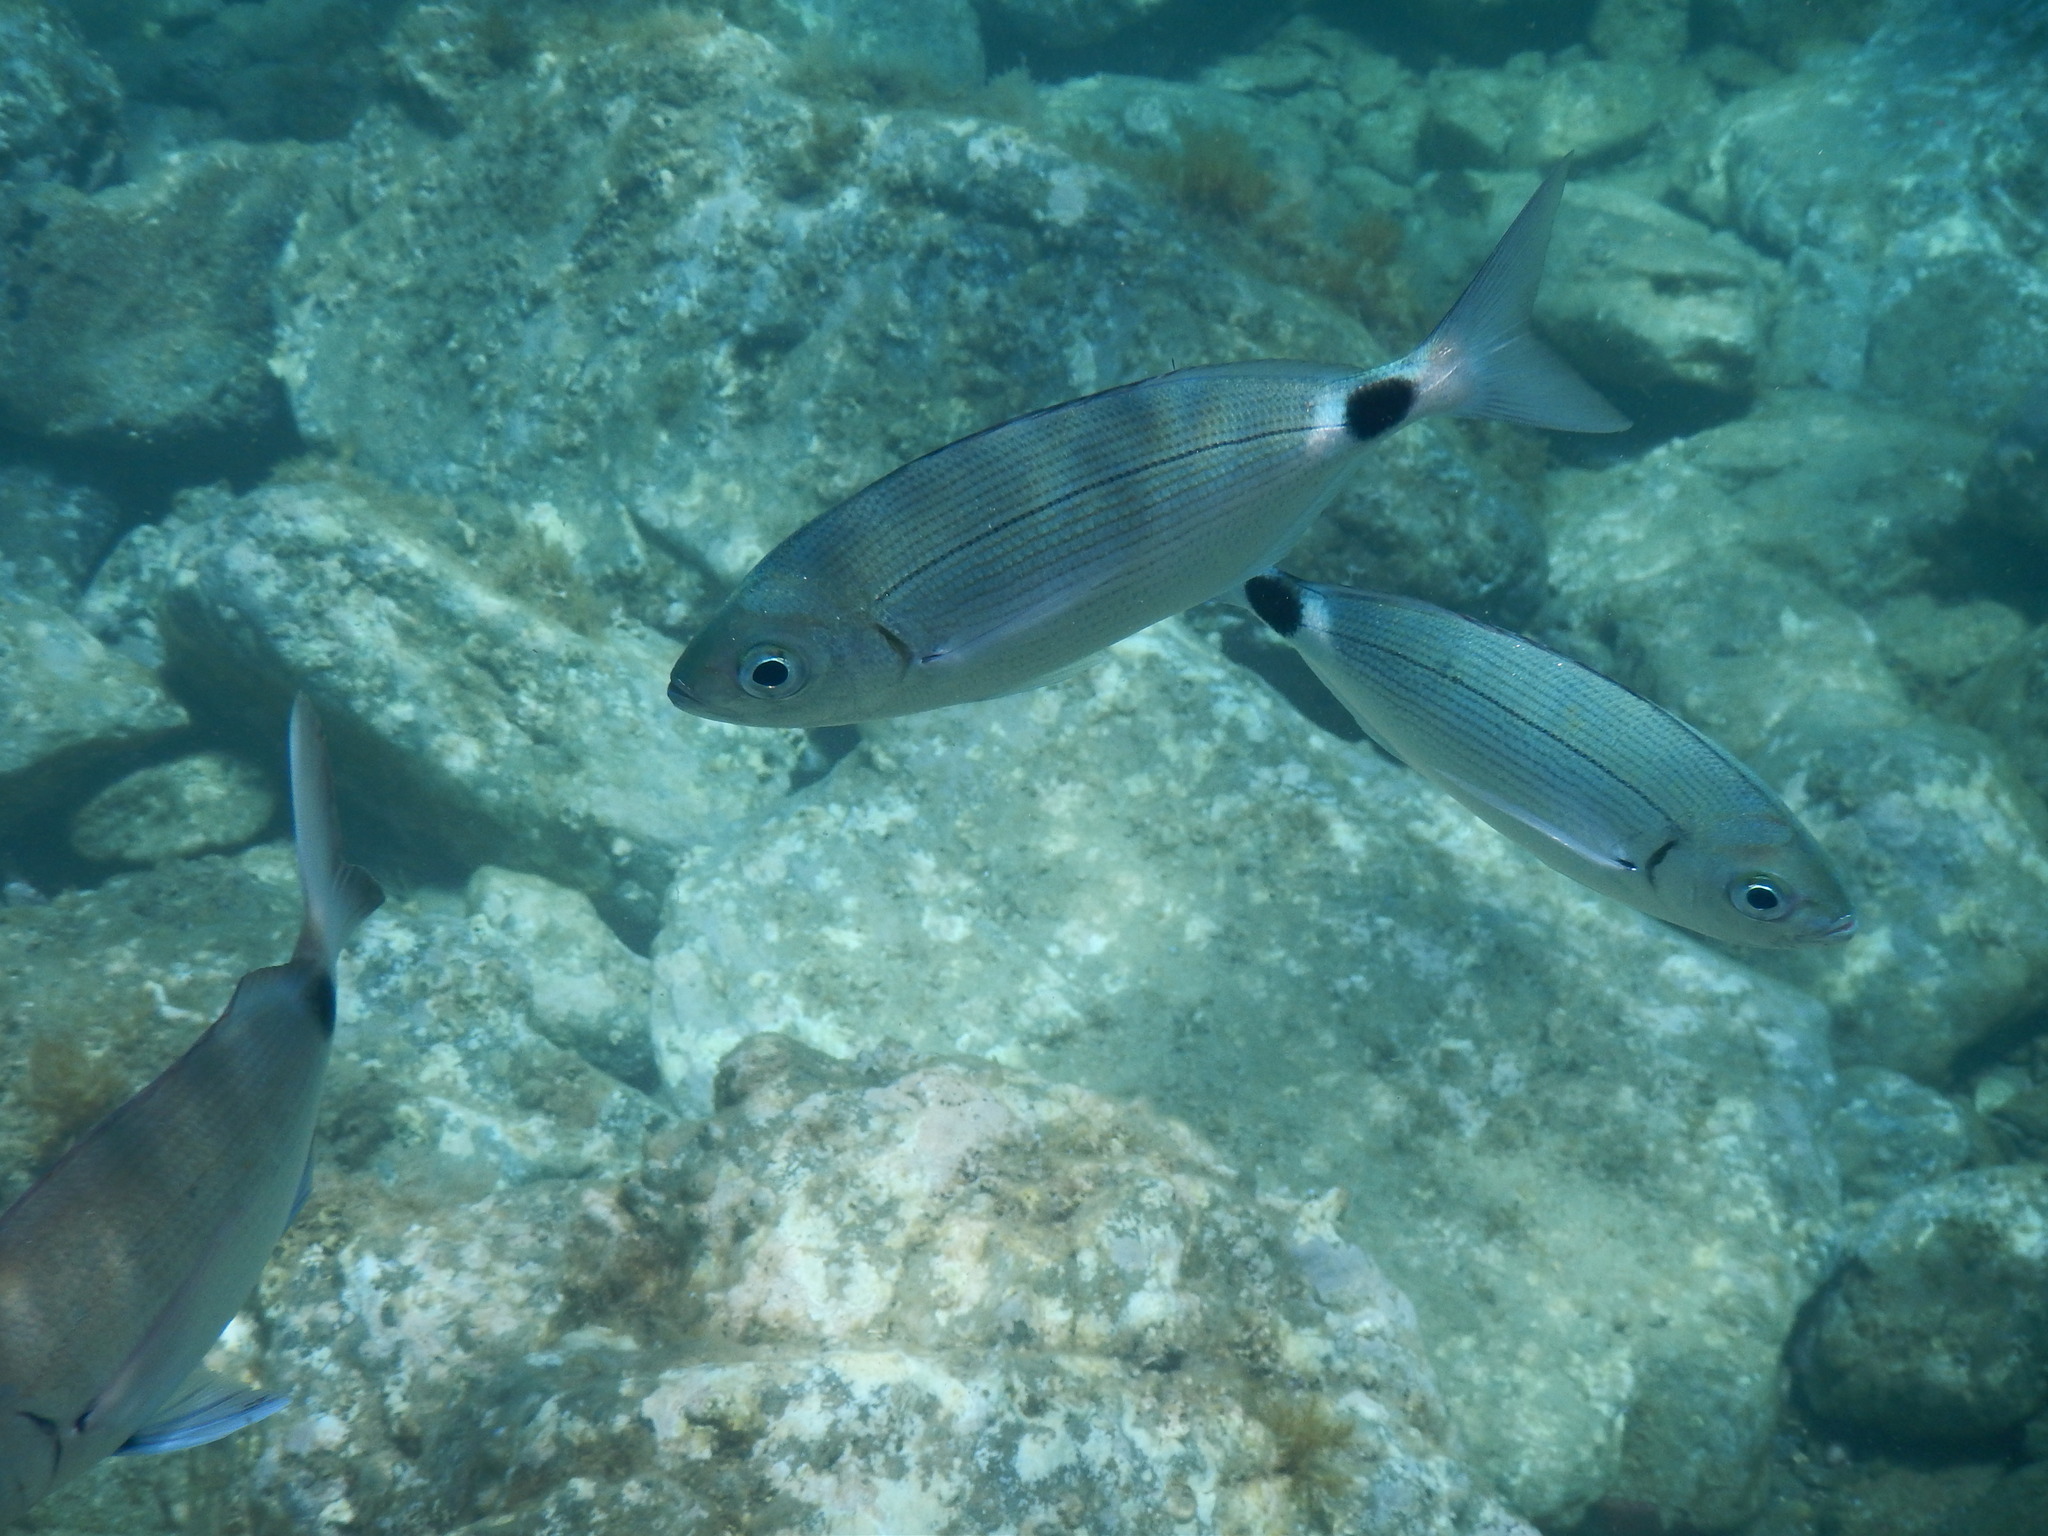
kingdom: Animalia
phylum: Chordata
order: Perciformes
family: Sparidae
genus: Oblada
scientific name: Oblada melanura
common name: Saddled seabream
